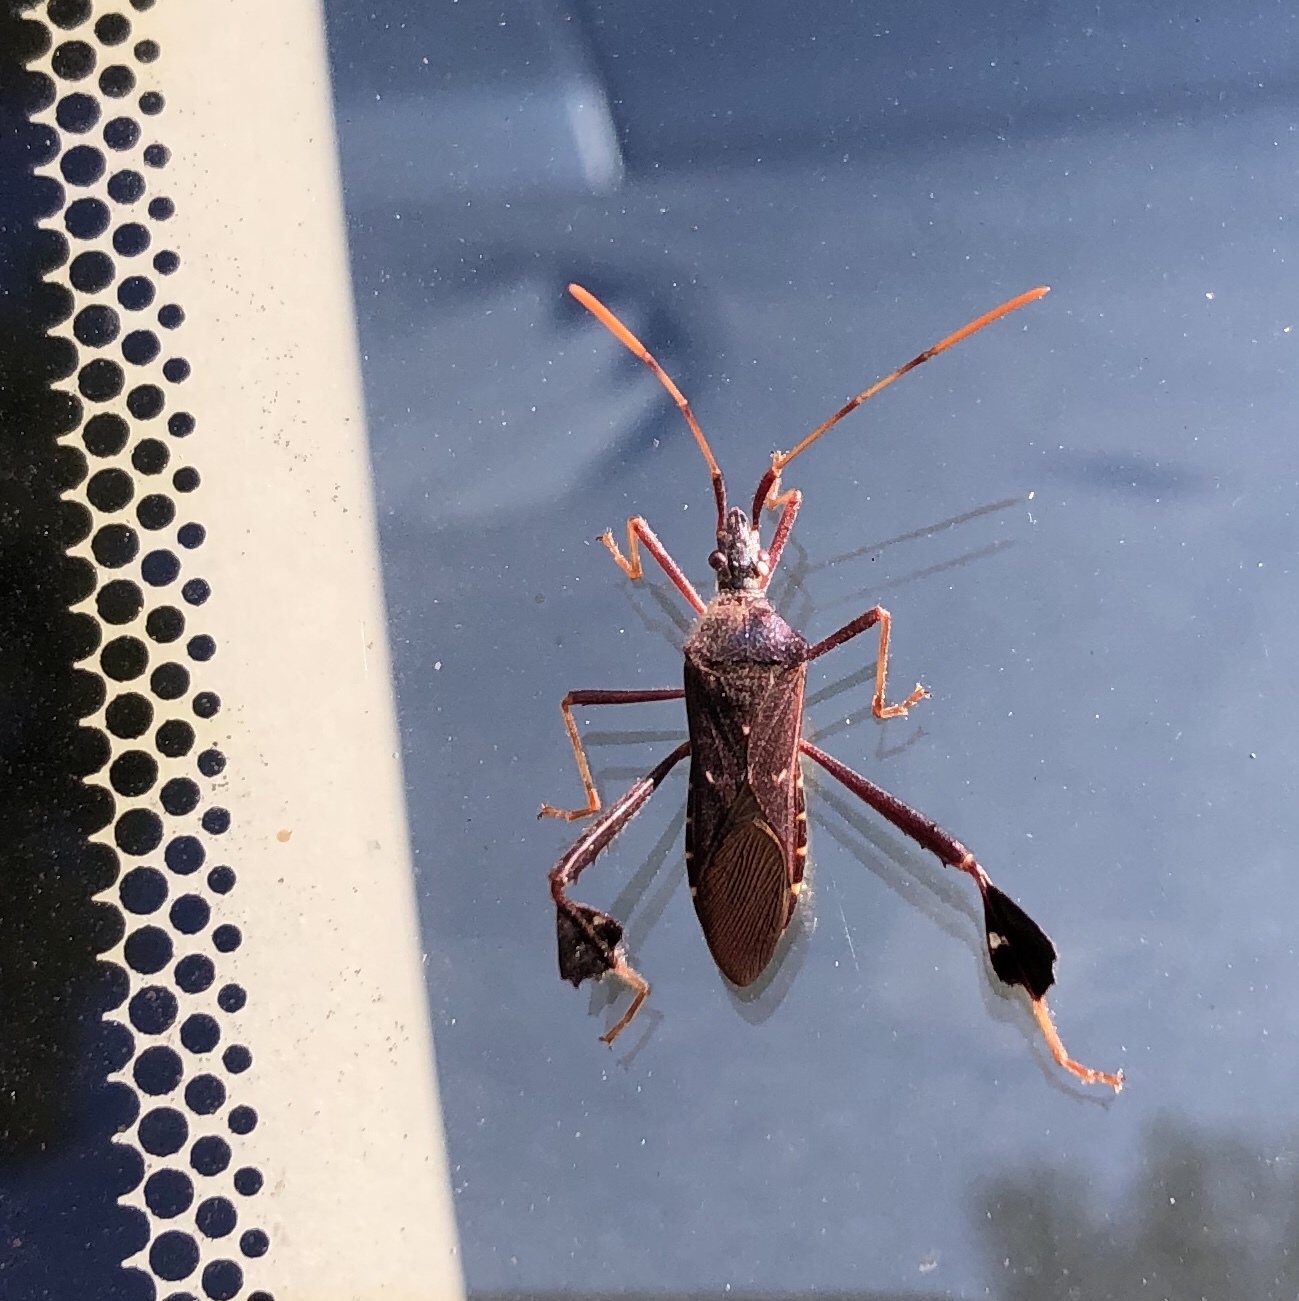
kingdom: Animalia
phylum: Arthropoda
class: Insecta
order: Hemiptera
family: Coreidae
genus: Leptoglossus
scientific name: Leptoglossus oppositus
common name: Northern leaf-footed bug
